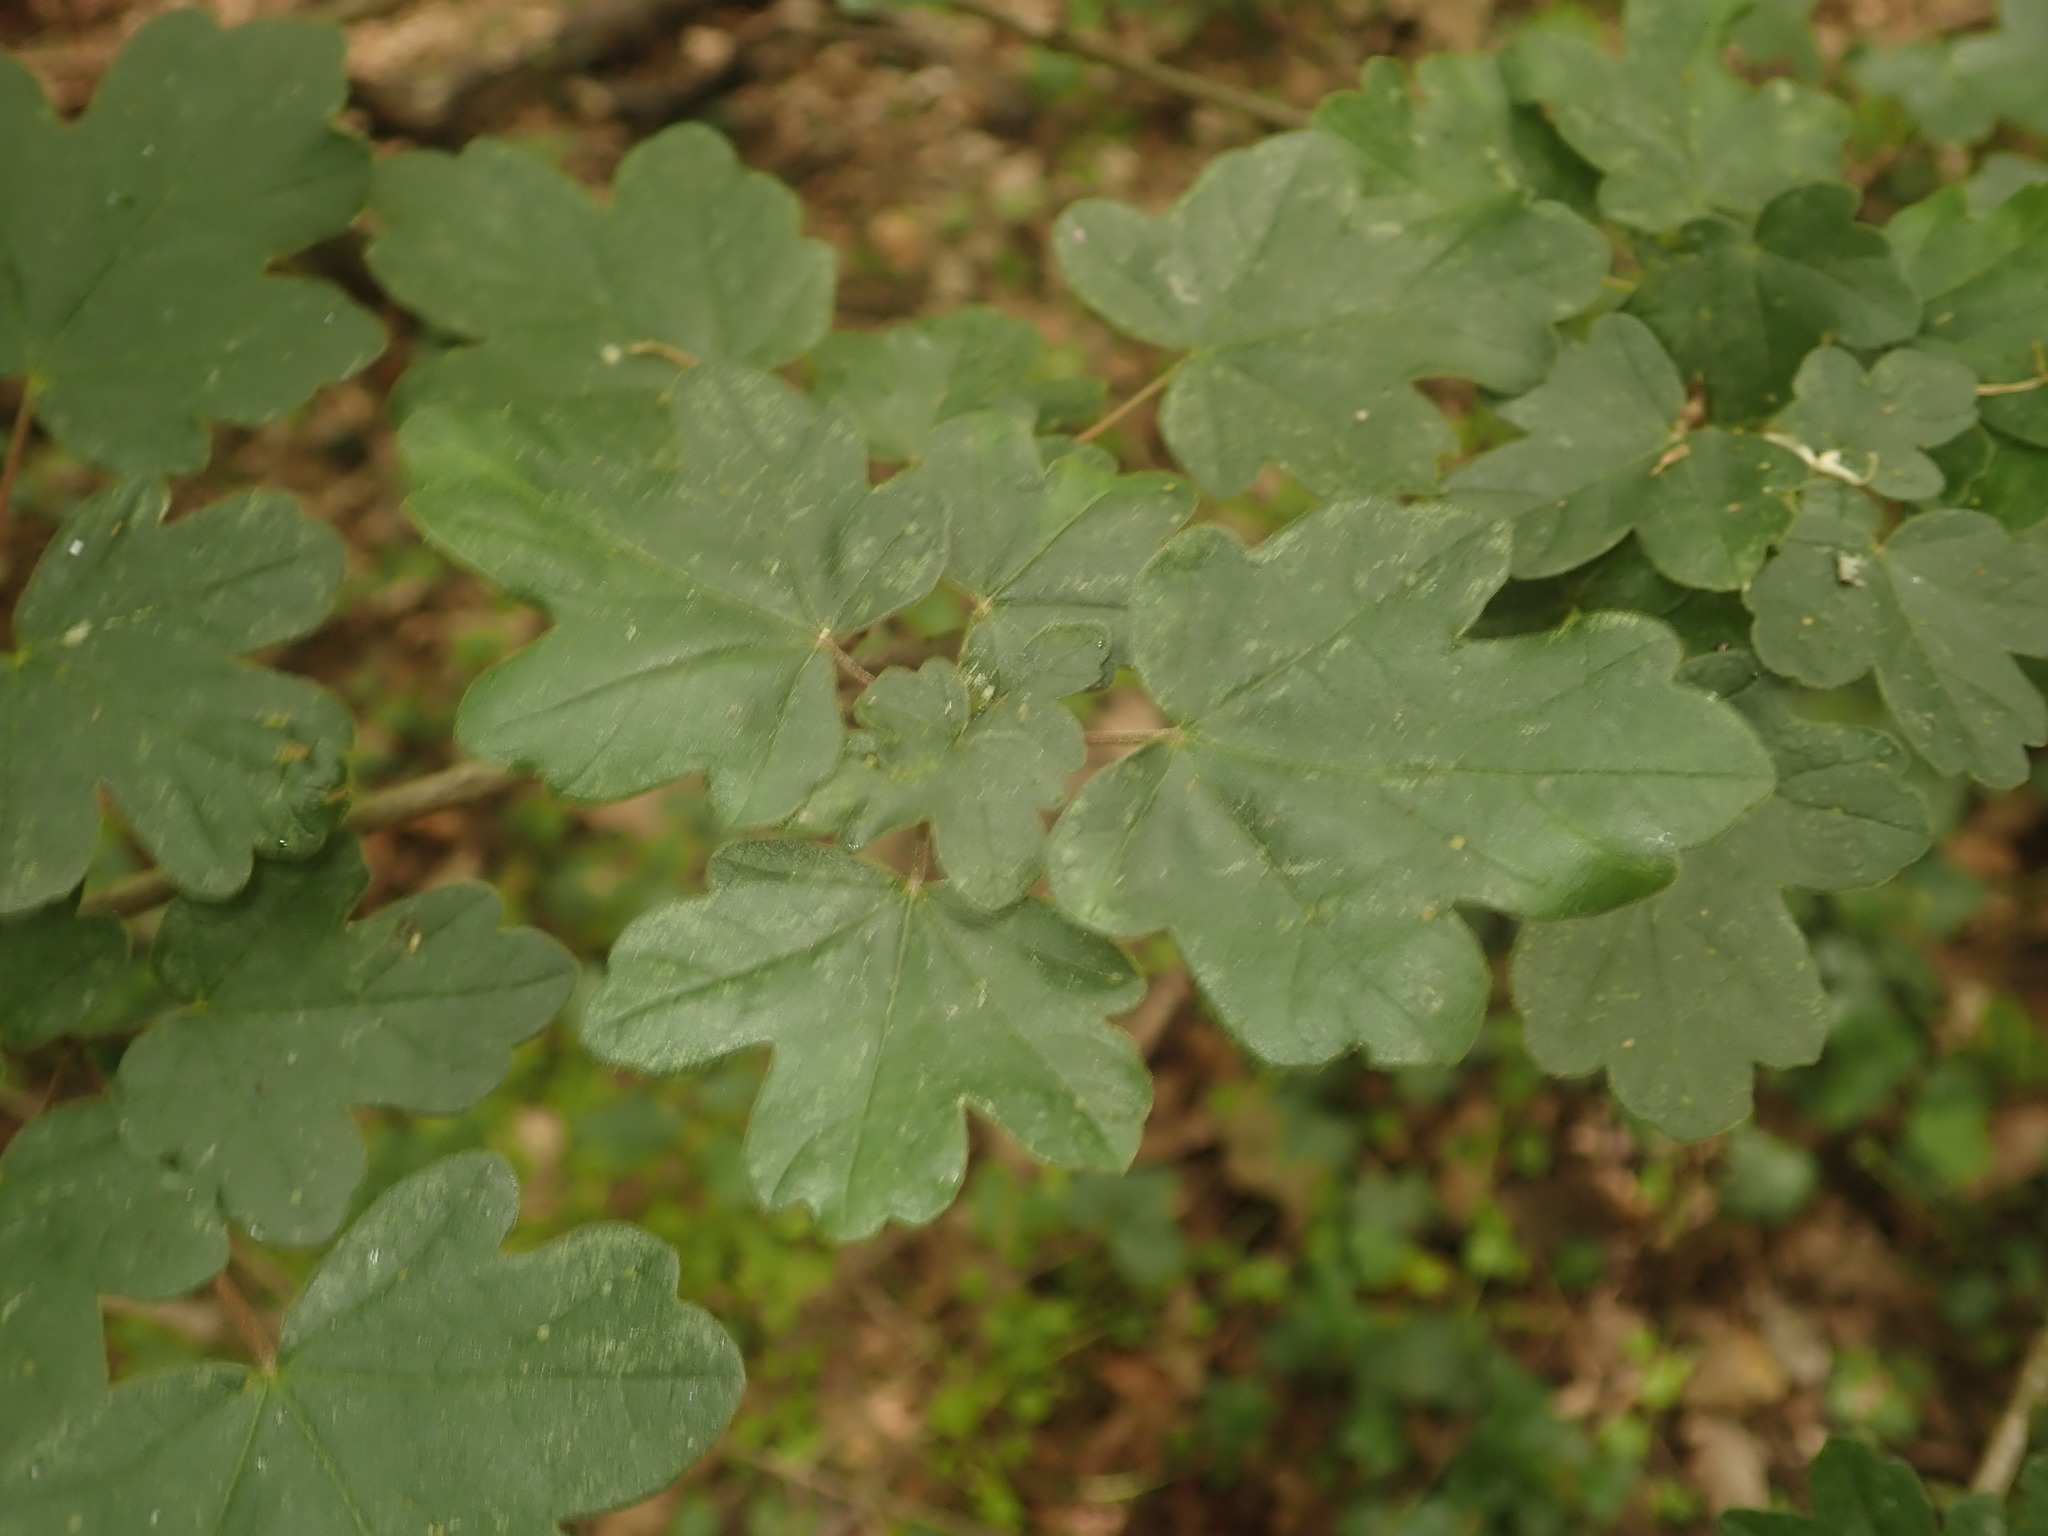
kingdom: Plantae
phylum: Tracheophyta
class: Magnoliopsida
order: Sapindales
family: Sapindaceae
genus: Acer
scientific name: Acer campestre
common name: Field maple
